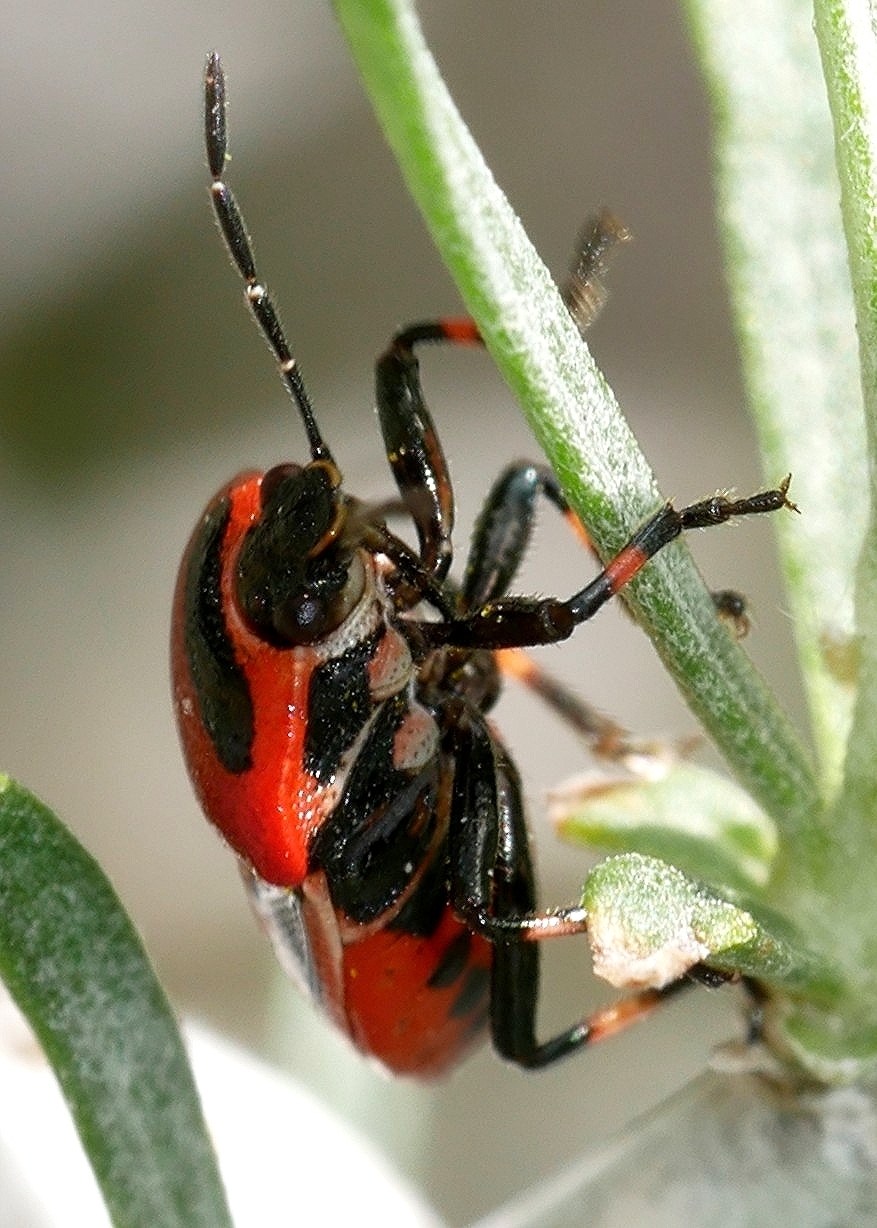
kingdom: Animalia
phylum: Arthropoda
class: Insecta
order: Hemiptera
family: Pentatomidae
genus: Perillus
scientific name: Perillus exaptus
